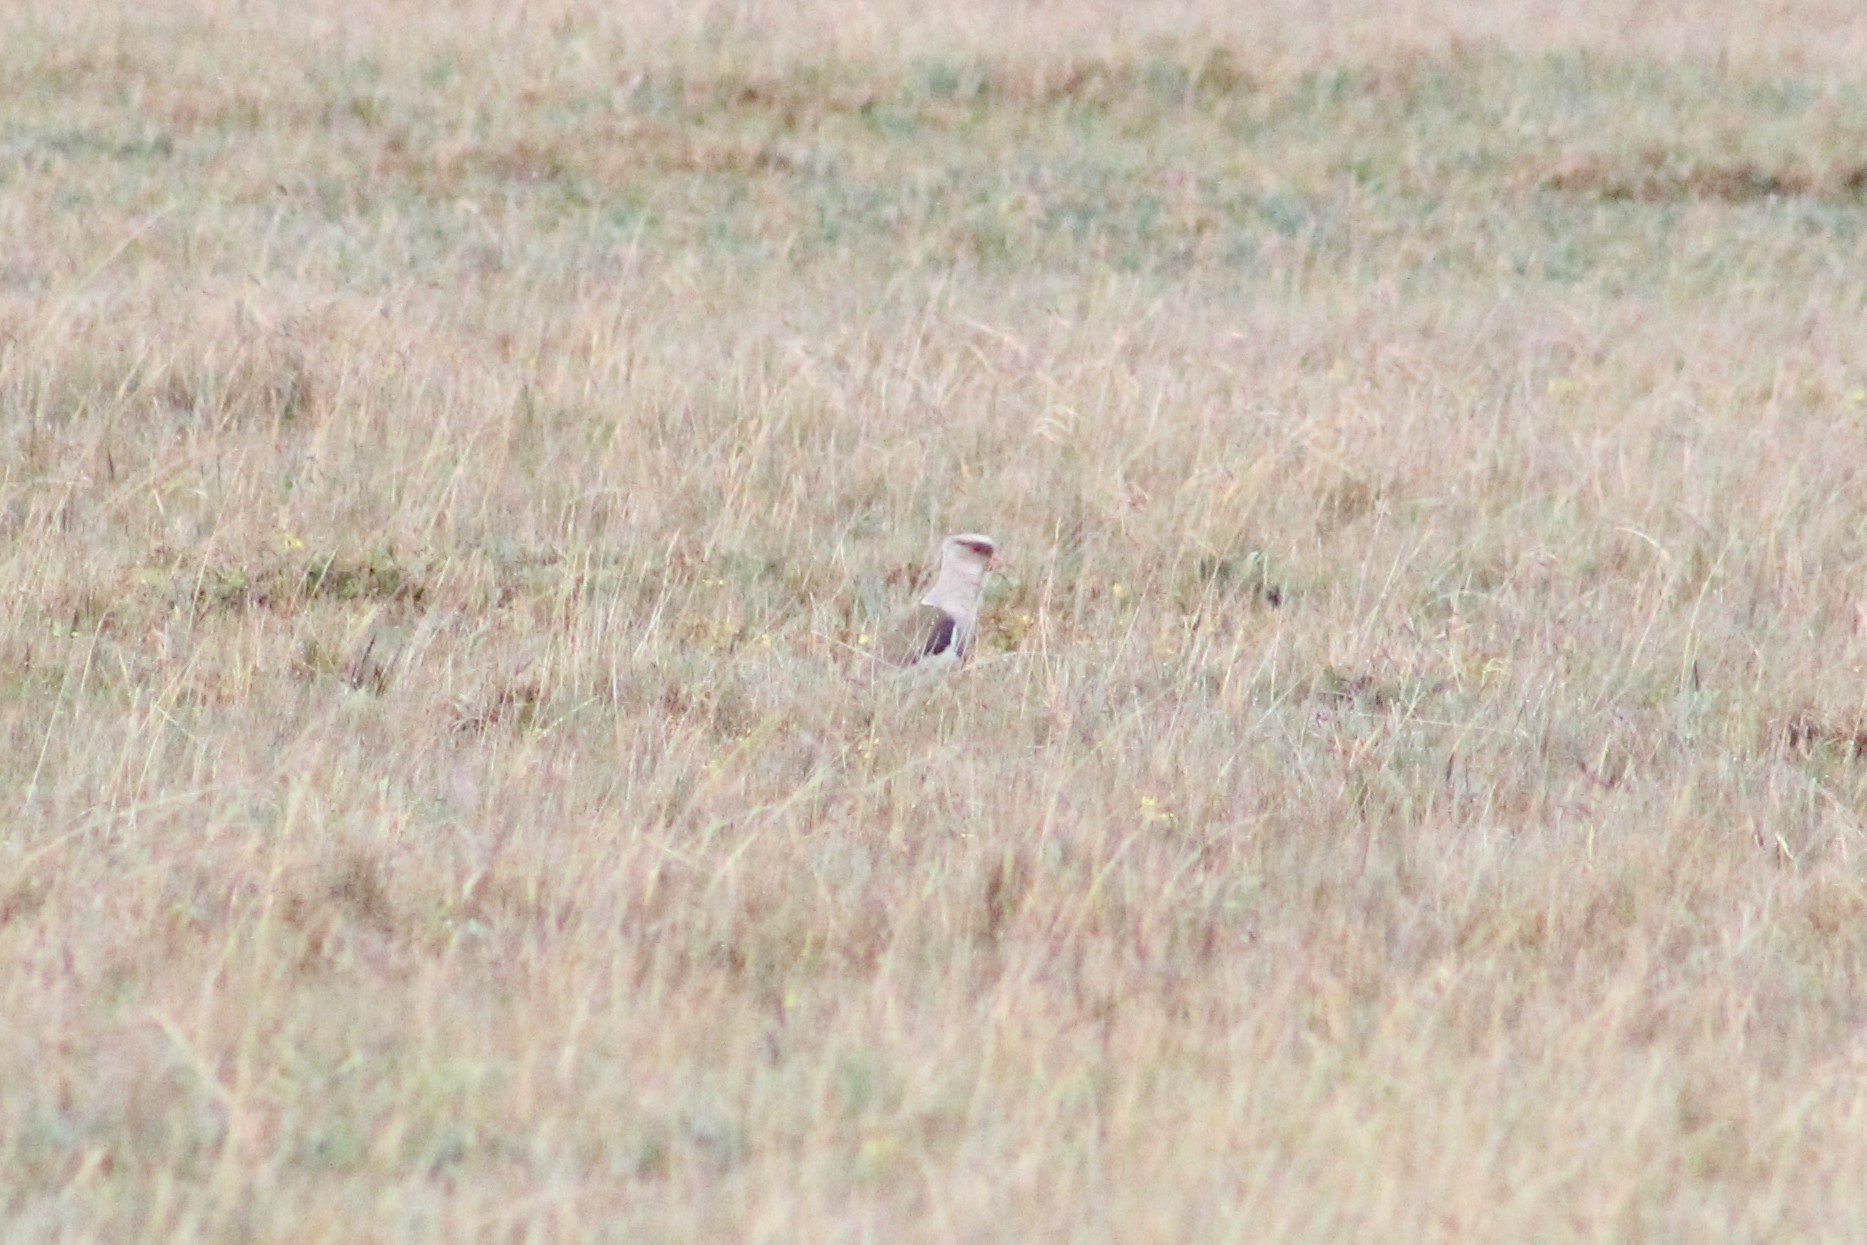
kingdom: Animalia
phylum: Chordata
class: Aves
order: Charadriiformes
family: Charadriidae
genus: Vanellus
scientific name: Vanellus resplendens
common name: Andean lapwing
